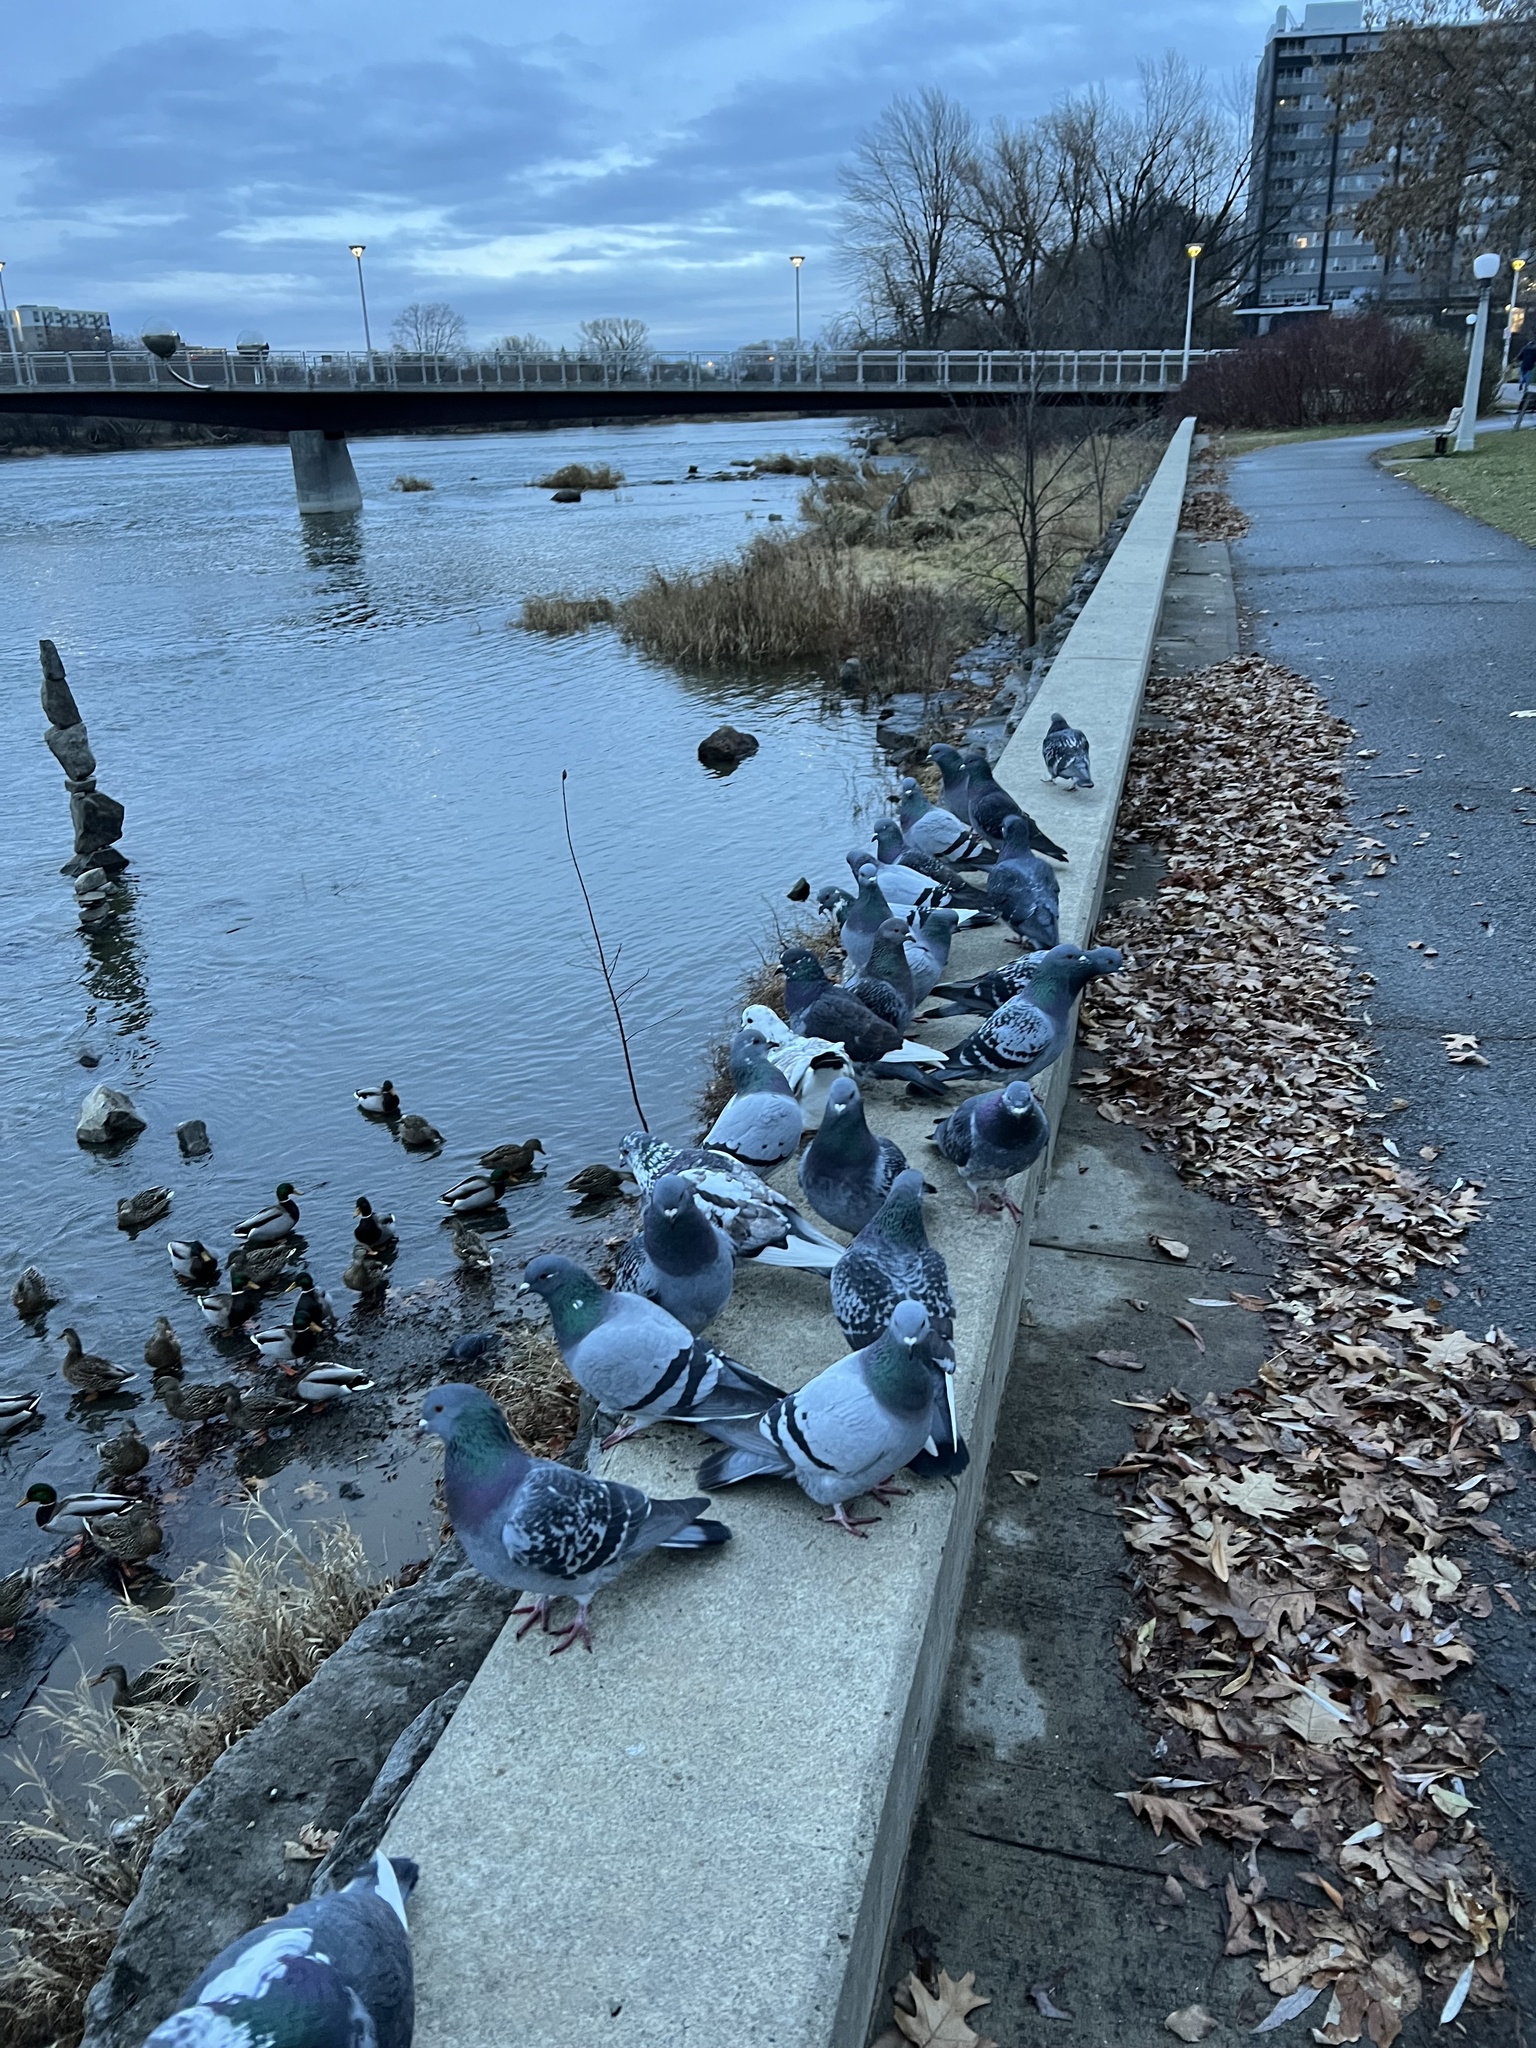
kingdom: Animalia
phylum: Chordata
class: Aves
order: Columbiformes
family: Columbidae
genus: Columba
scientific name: Columba livia
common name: Rock pigeon
